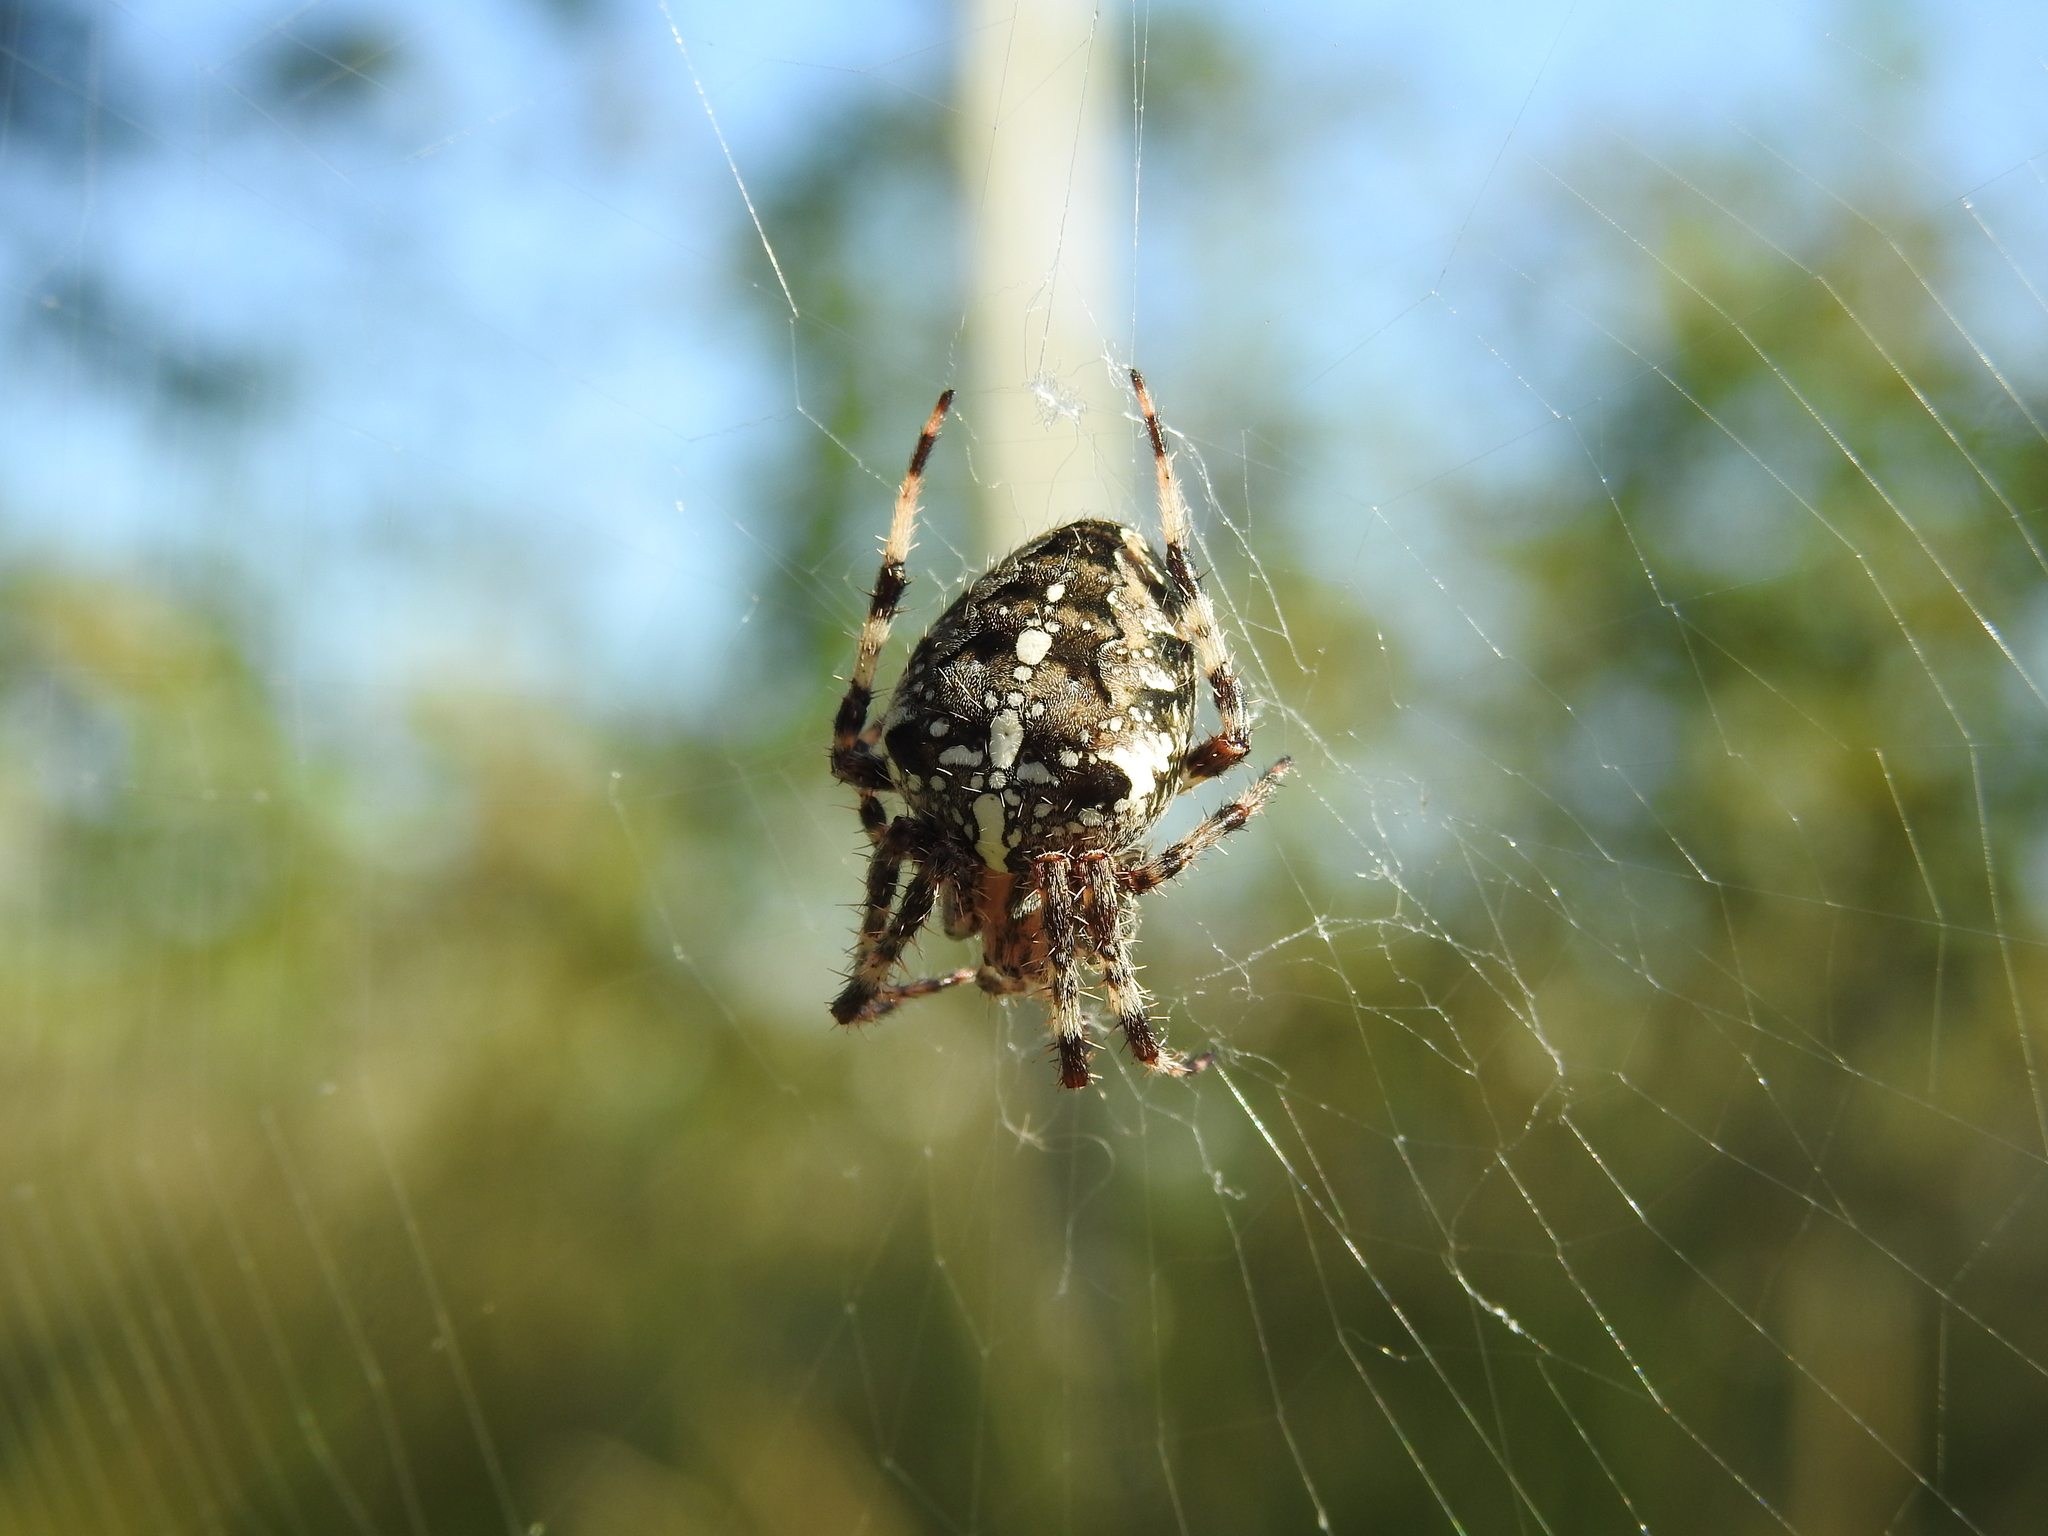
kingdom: Animalia
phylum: Arthropoda
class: Arachnida
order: Araneae
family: Araneidae
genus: Araneus
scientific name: Araneus diadematus
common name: Cross orbweaver
